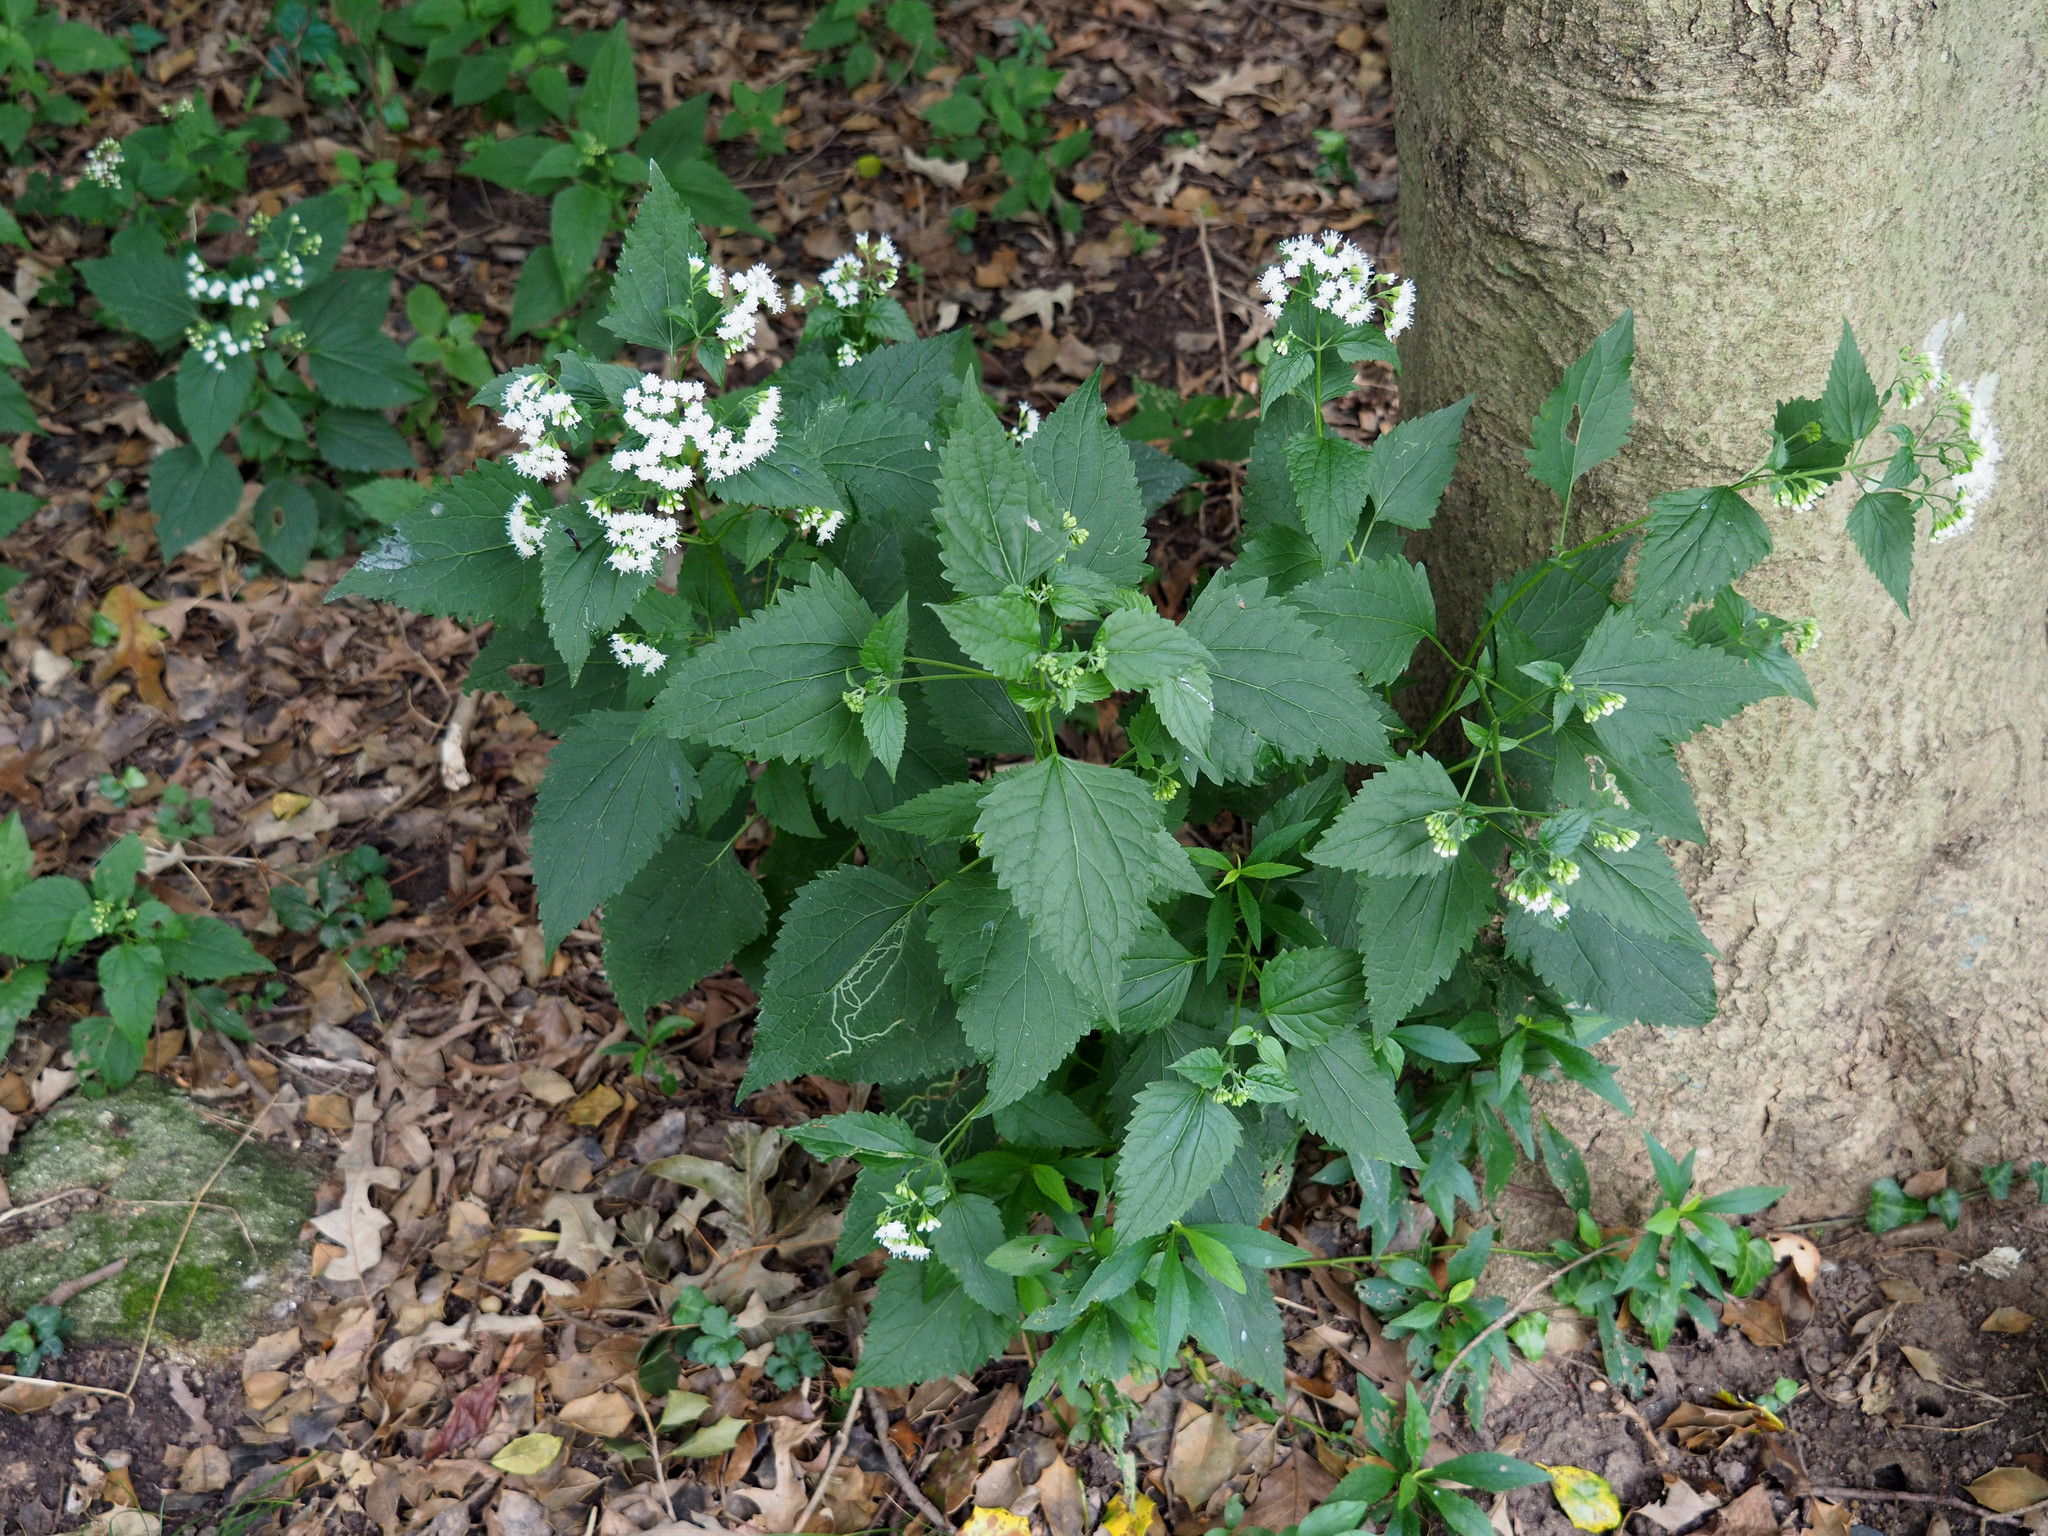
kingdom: Plantae
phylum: Tracheophyta
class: Magnoliopsida
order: Asterales
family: Asteraceae
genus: Ageratina
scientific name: Ageratina altissima
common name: White snakeroot
